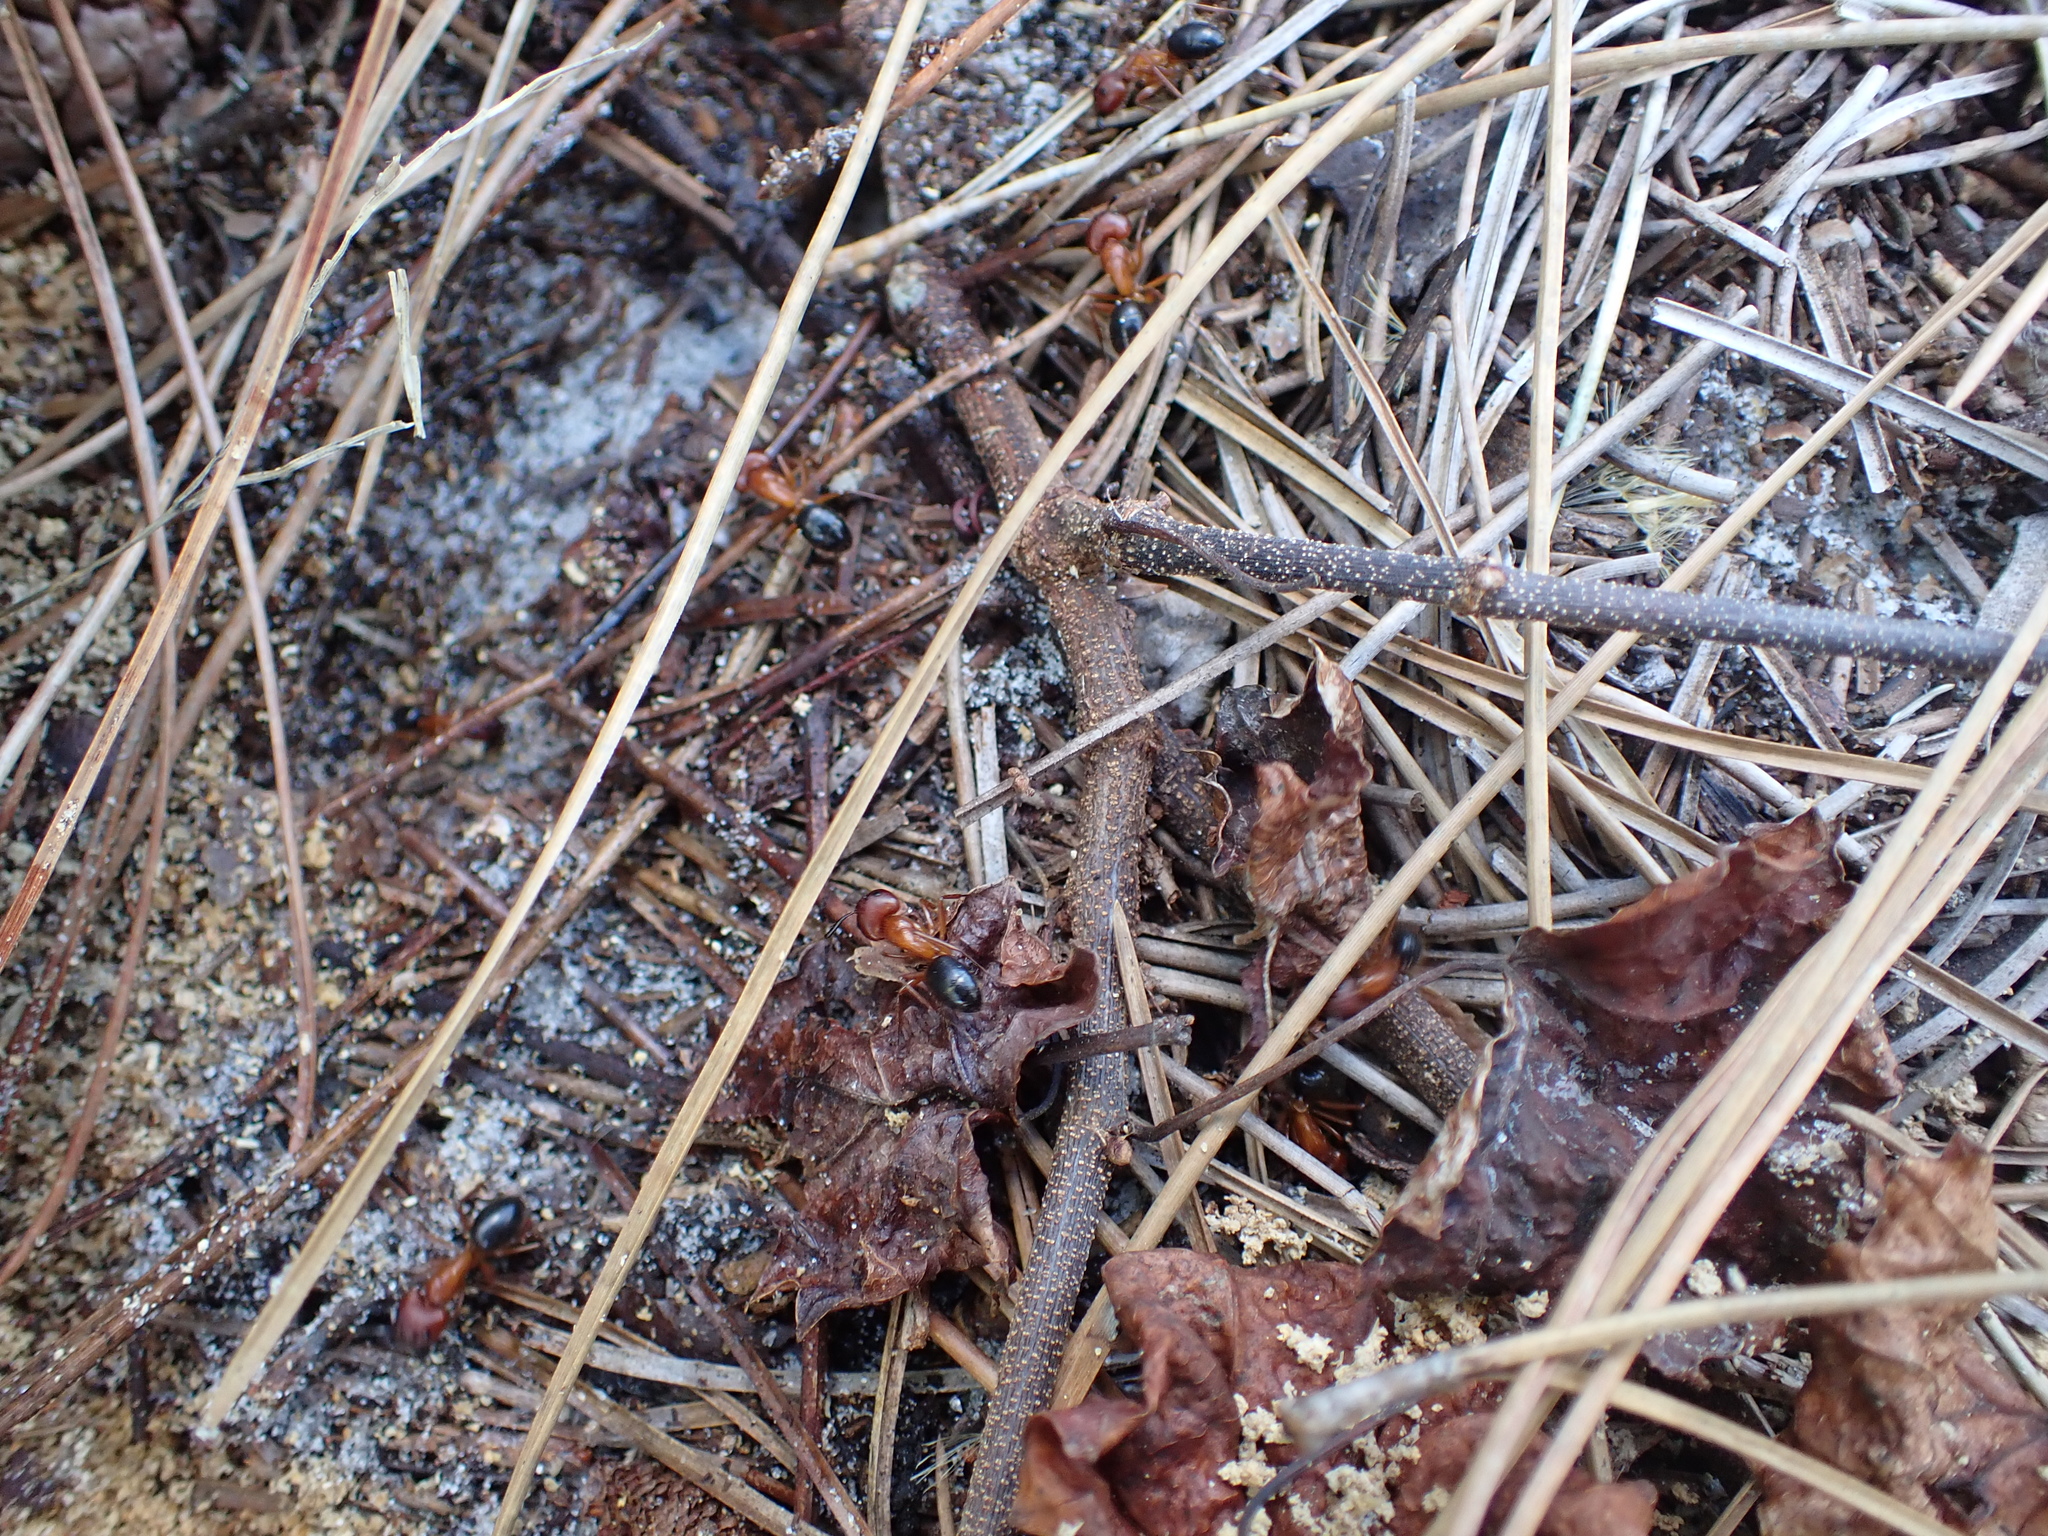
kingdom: Animalia
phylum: Arthropoda
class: Insecta
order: Hymenoptera
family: Formicidae
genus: Camponotus
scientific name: Camponotus floridanus
